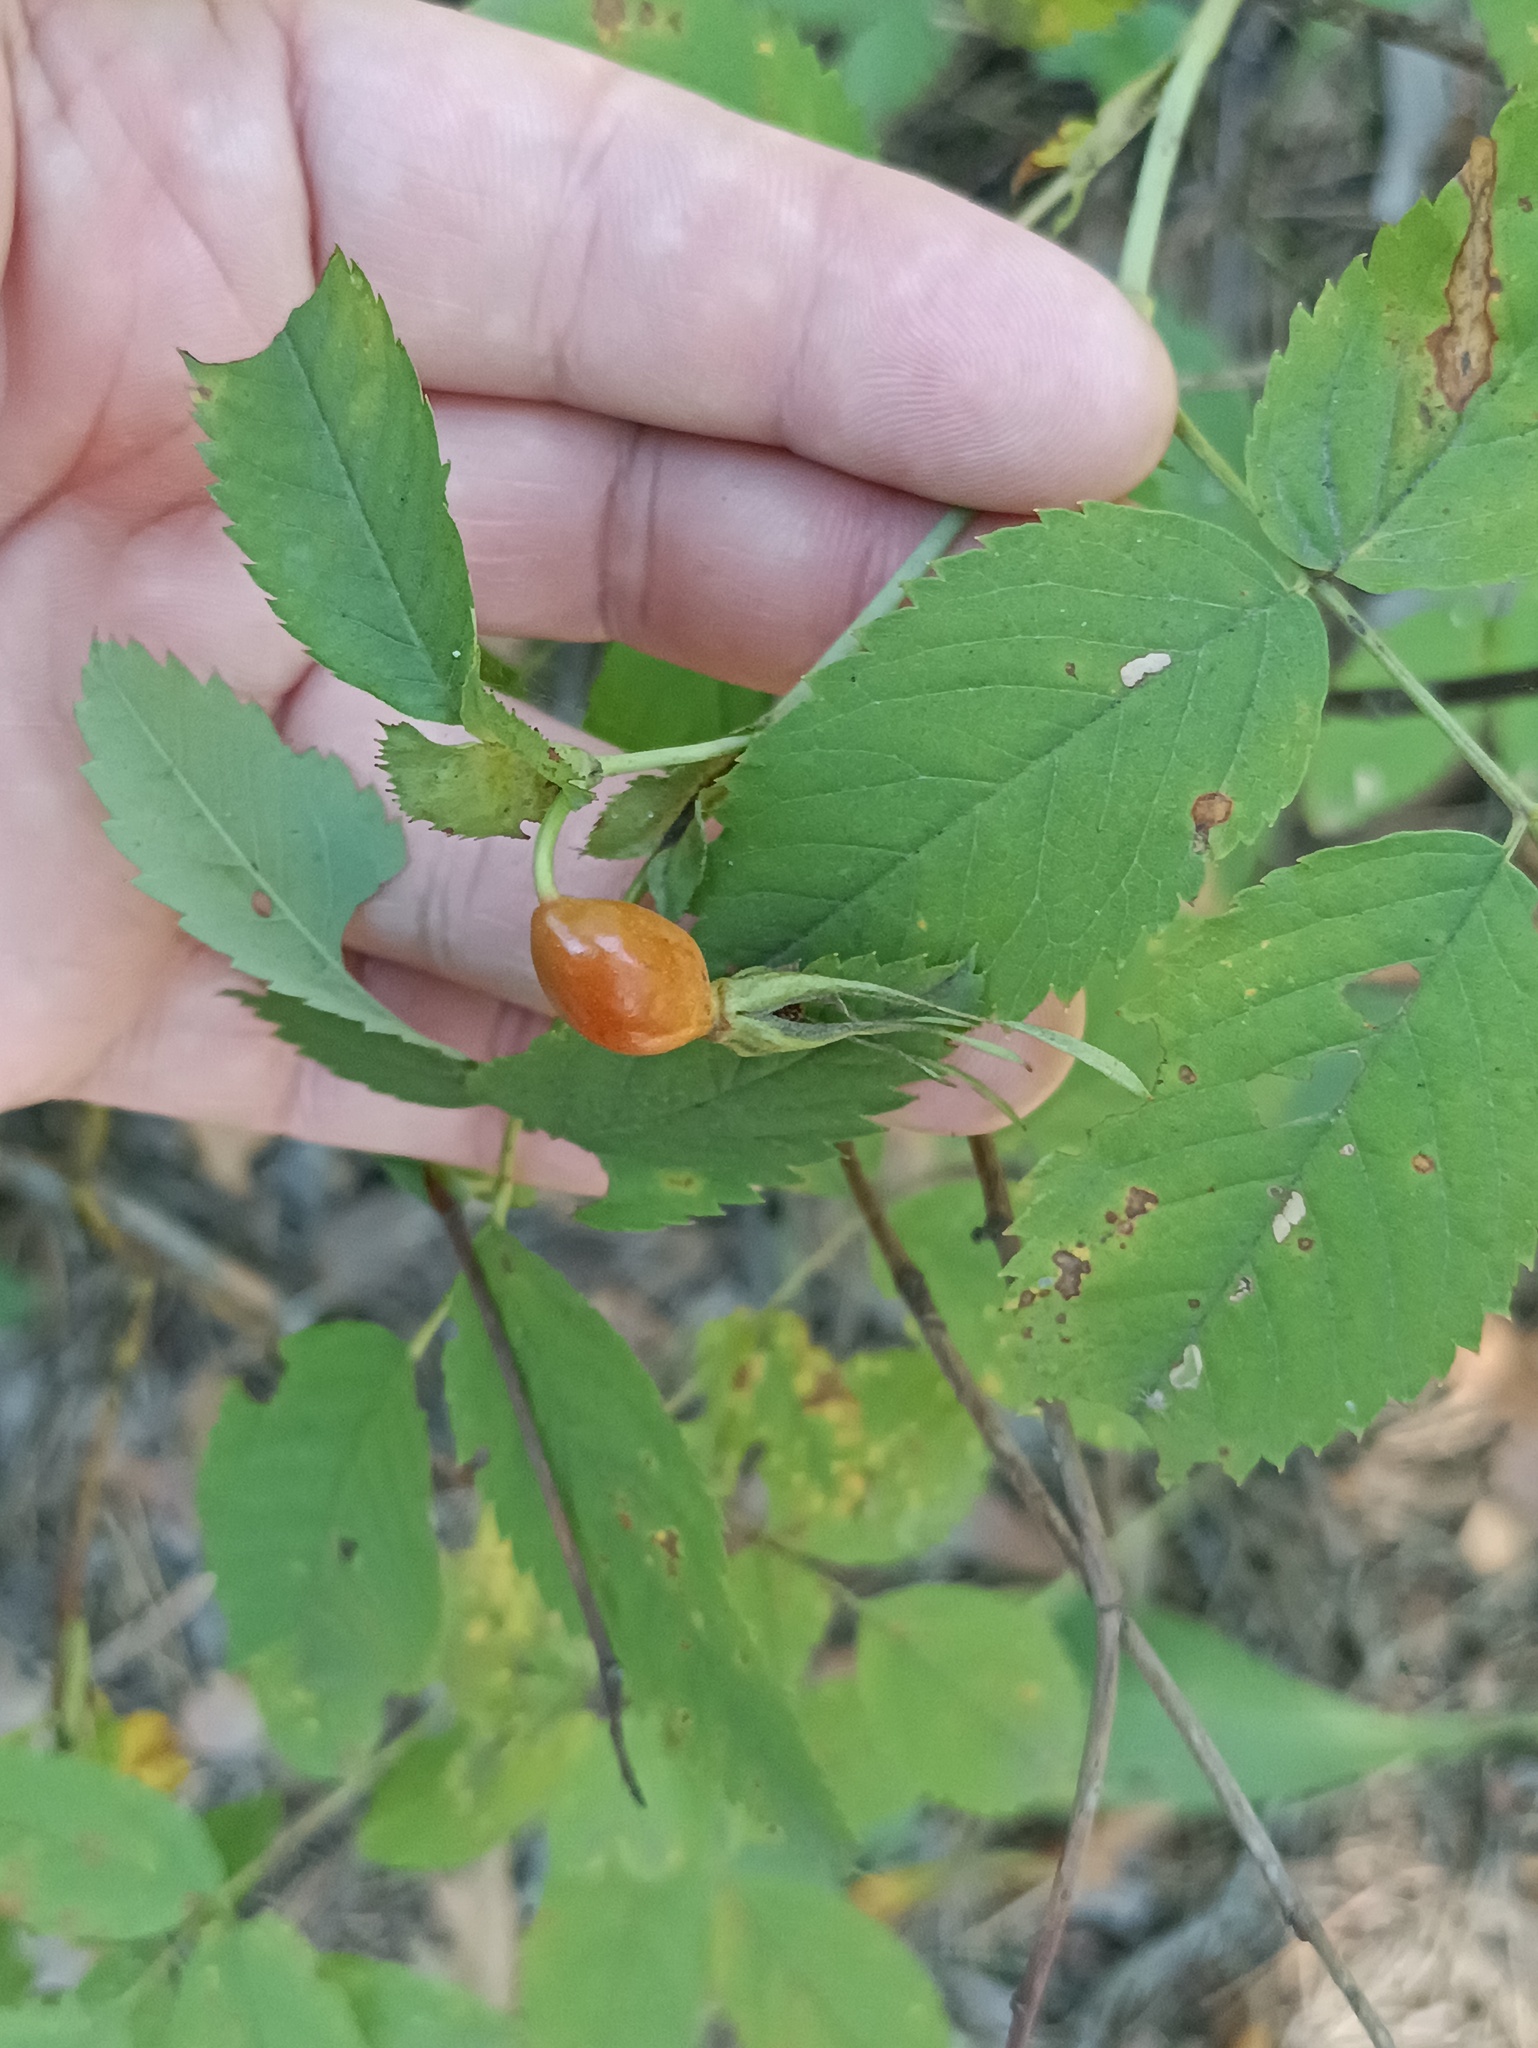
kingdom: Plantae
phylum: Tracheophyta
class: Magnoliopsida
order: Rosales
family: Rosaceae
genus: Rosa
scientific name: Rosa glabrifolia
